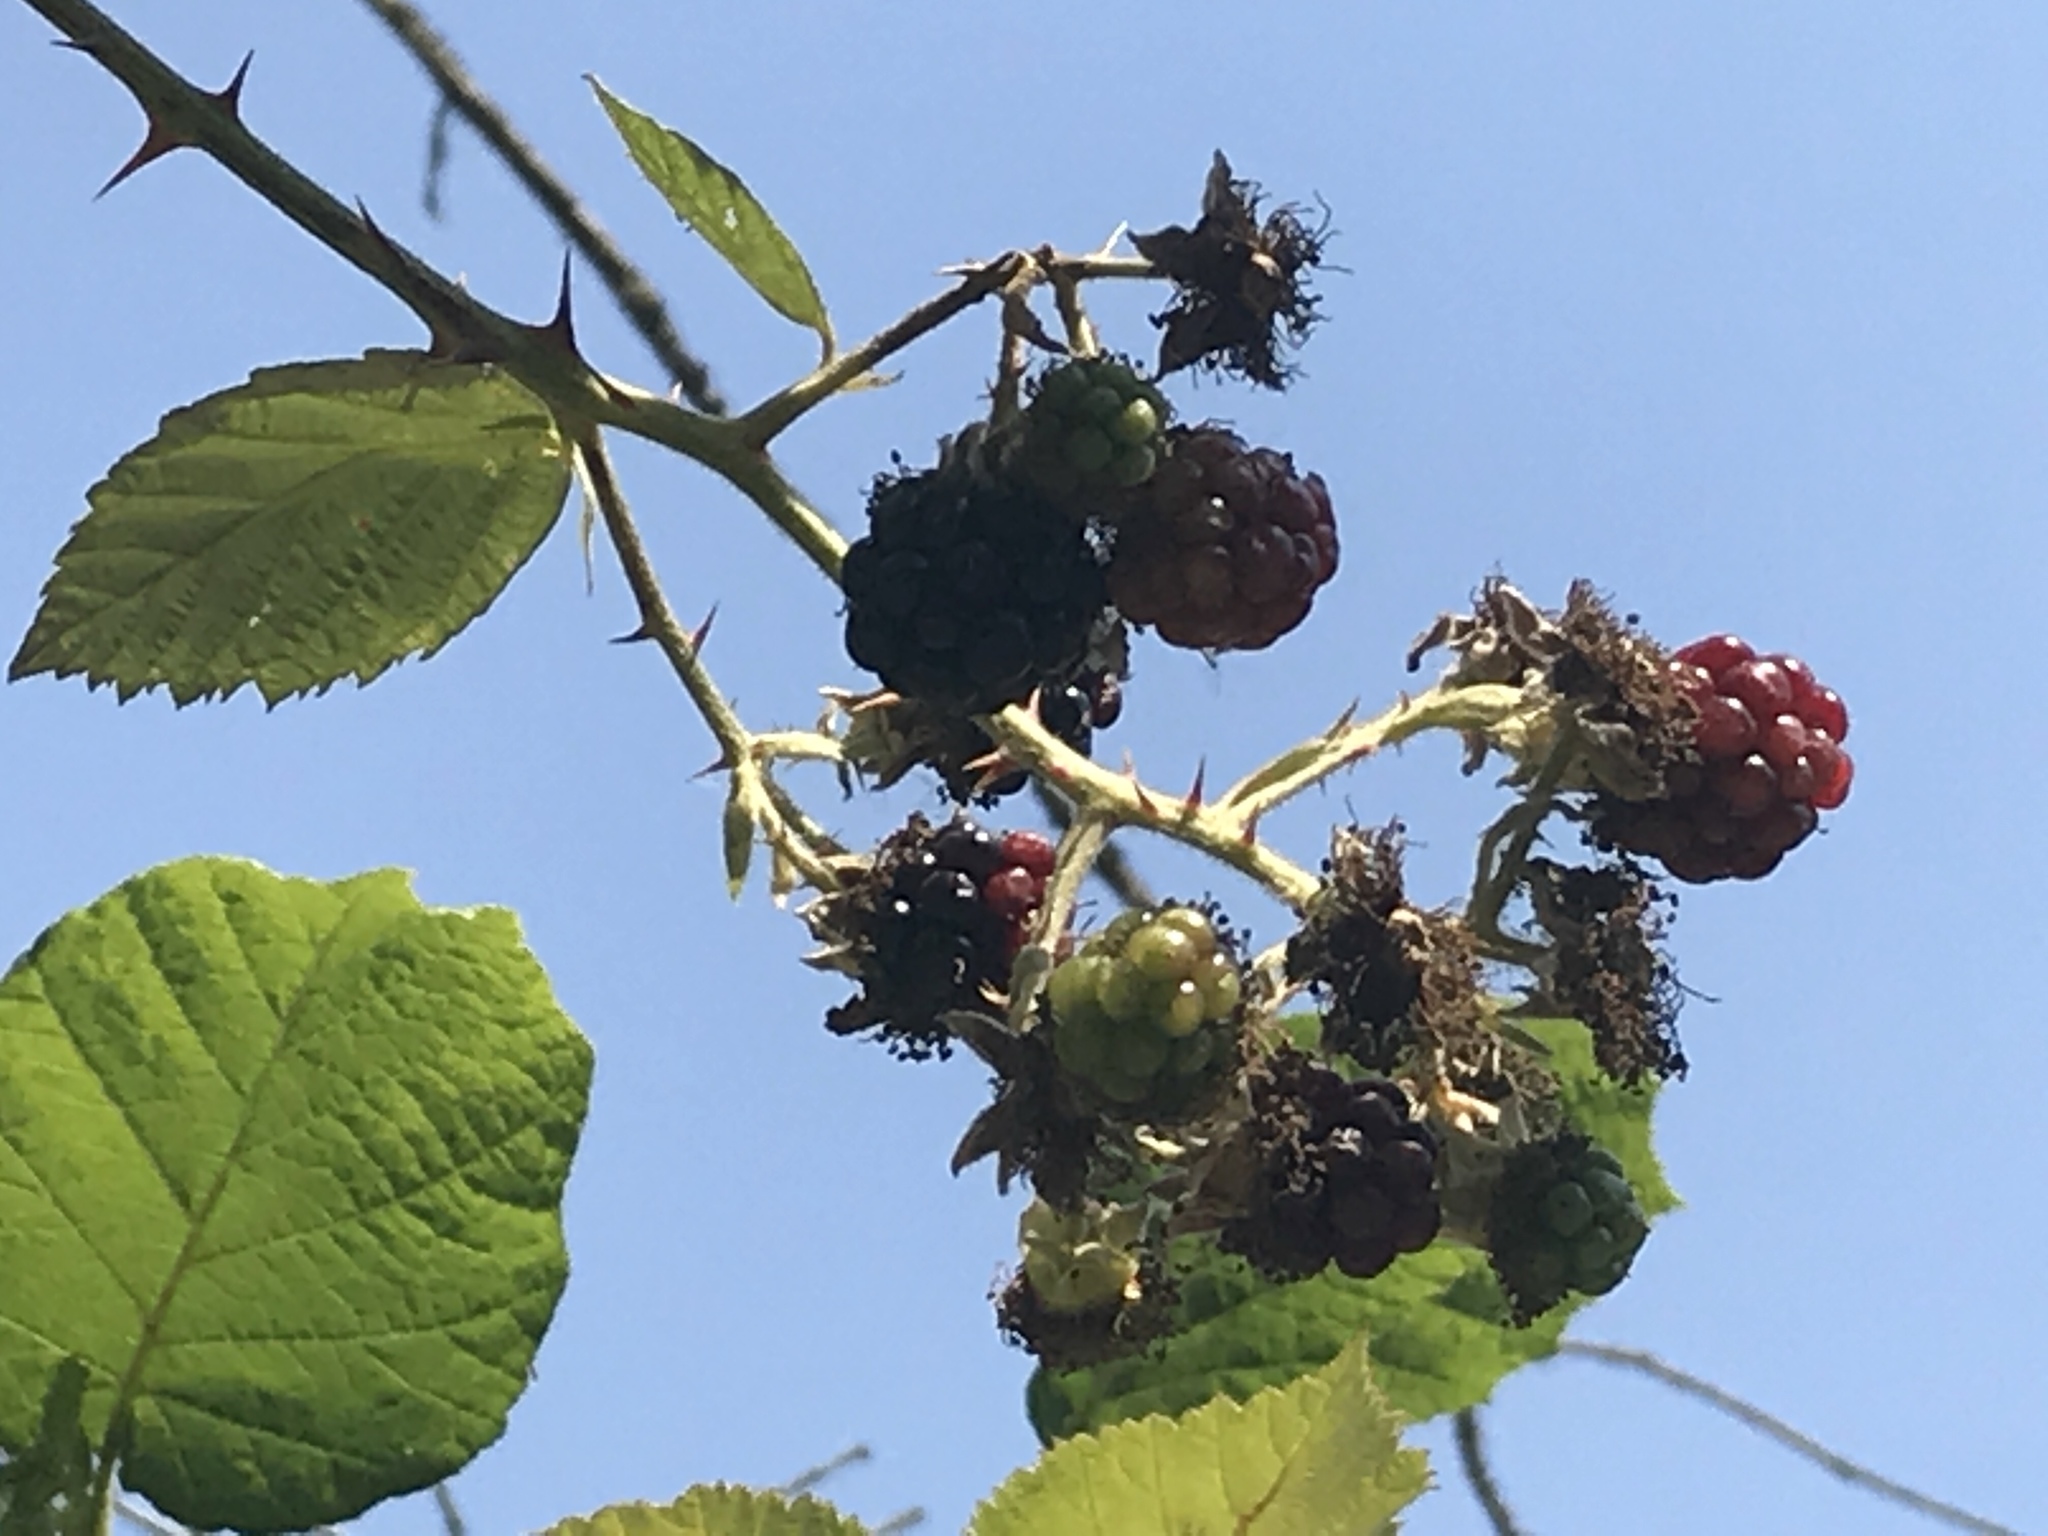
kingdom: Plantae
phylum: Tracheophyta
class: Magnoliopsida
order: Rosales
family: Rosaceae
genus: Rubus
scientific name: Rubus armeniacus
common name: Himalayan blackberry
